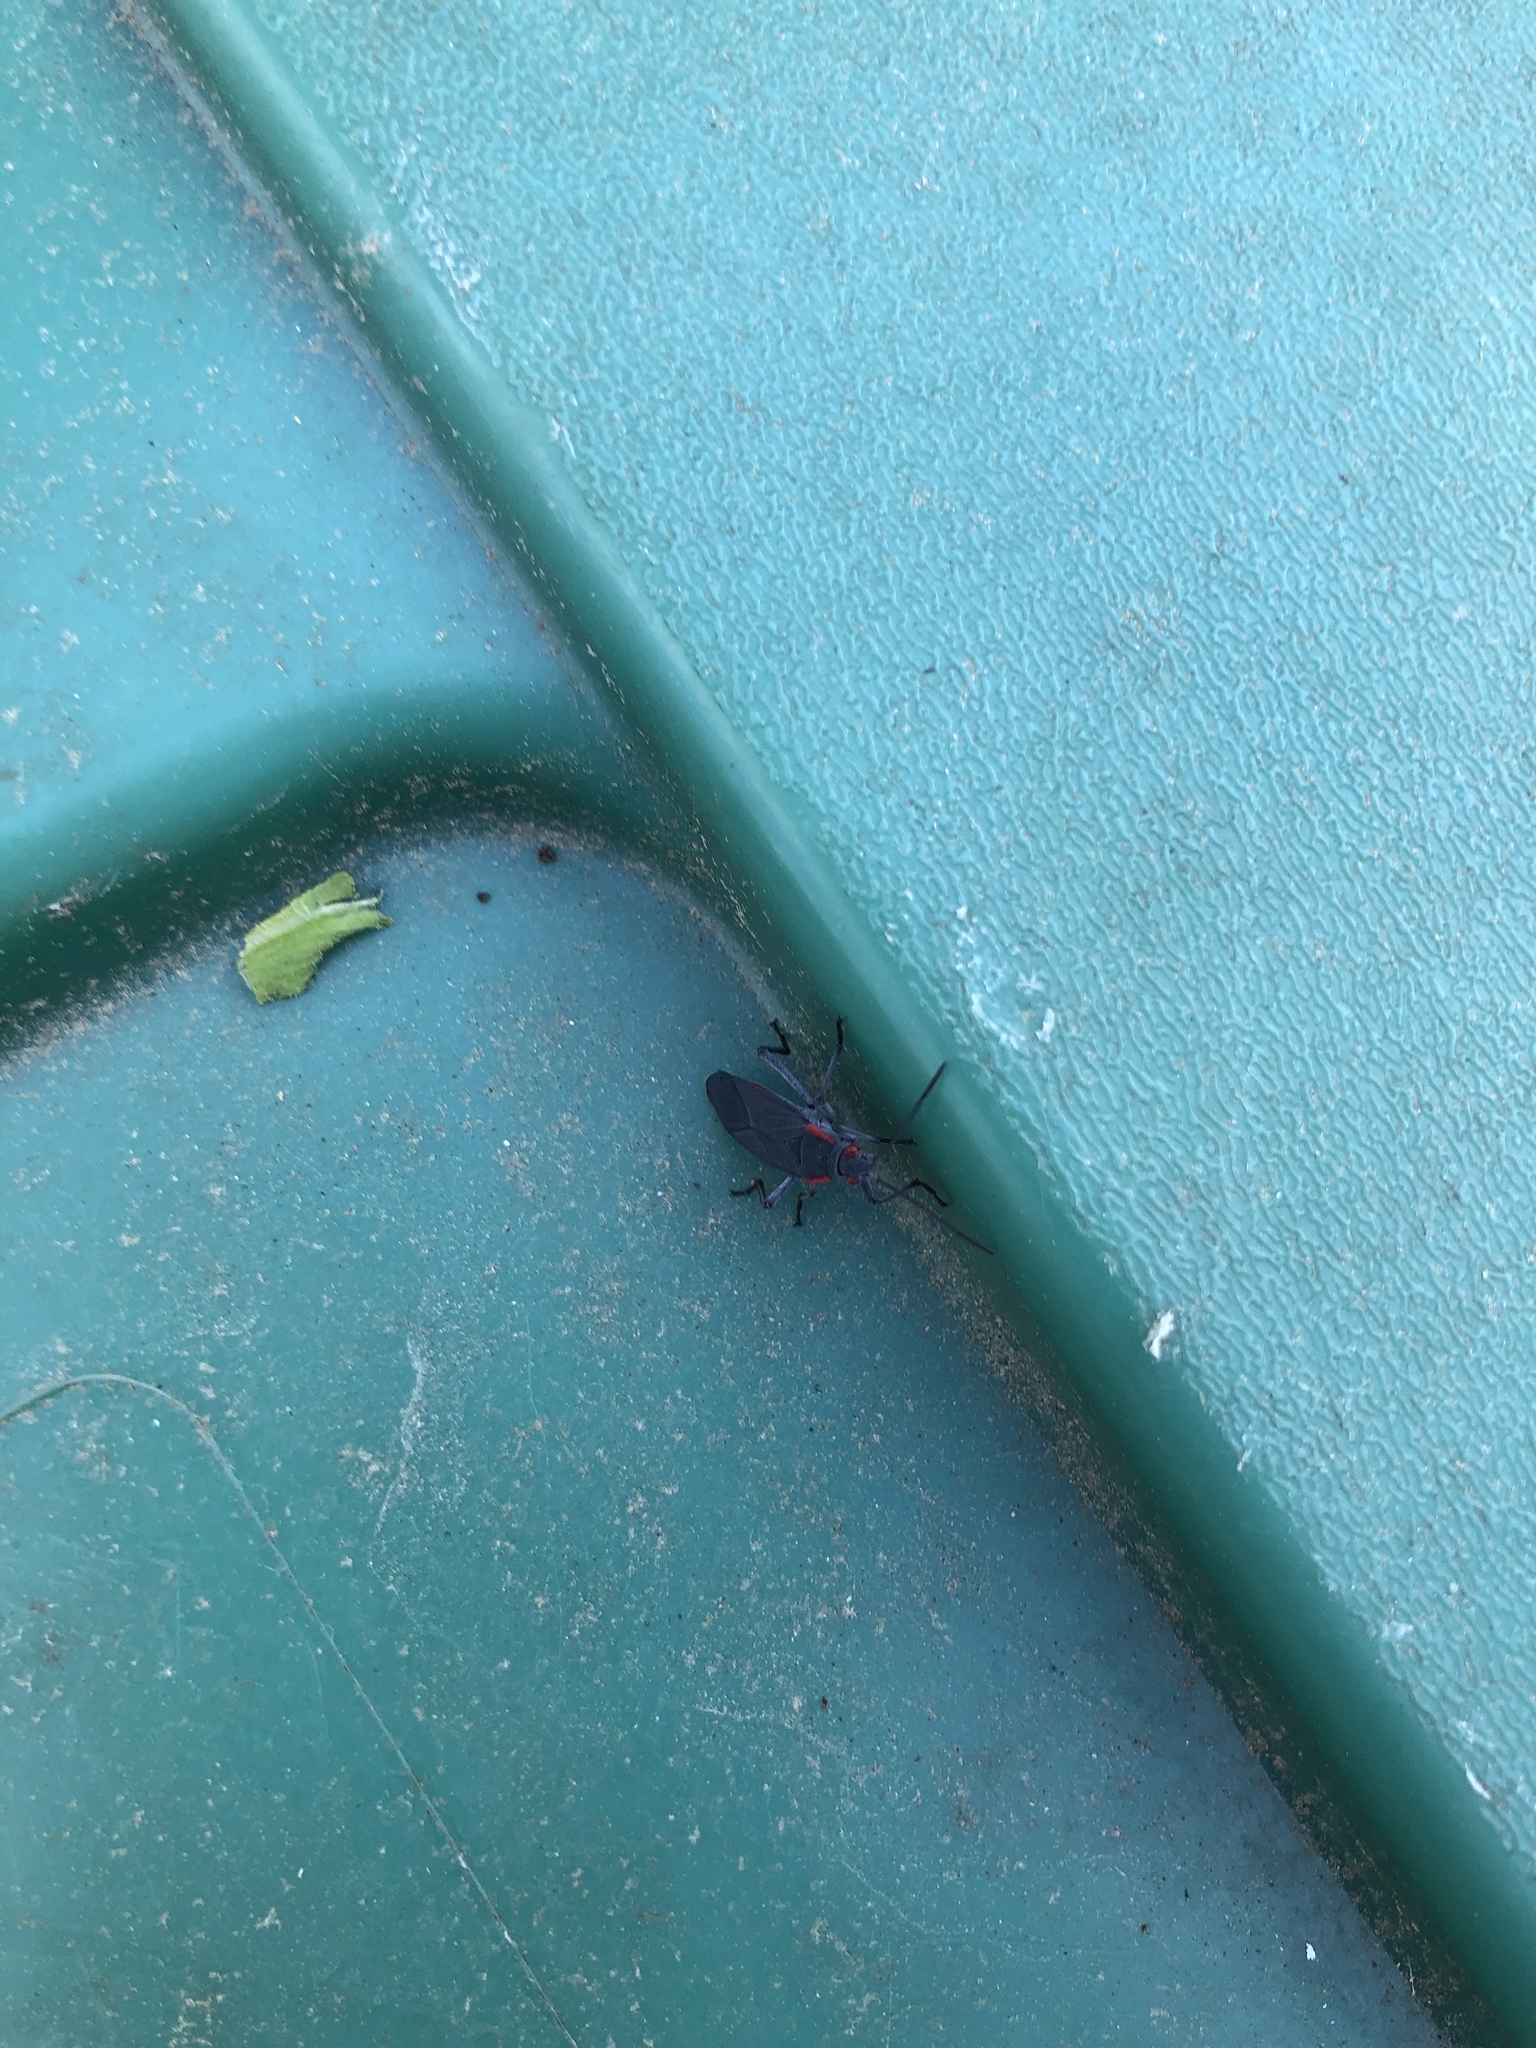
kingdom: Animalia
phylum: Arthropoda
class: Insecta
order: Hemiptera
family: Rhopalidae
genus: Jadera
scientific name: Jadera haematoloma
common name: Red-shouldered bug
